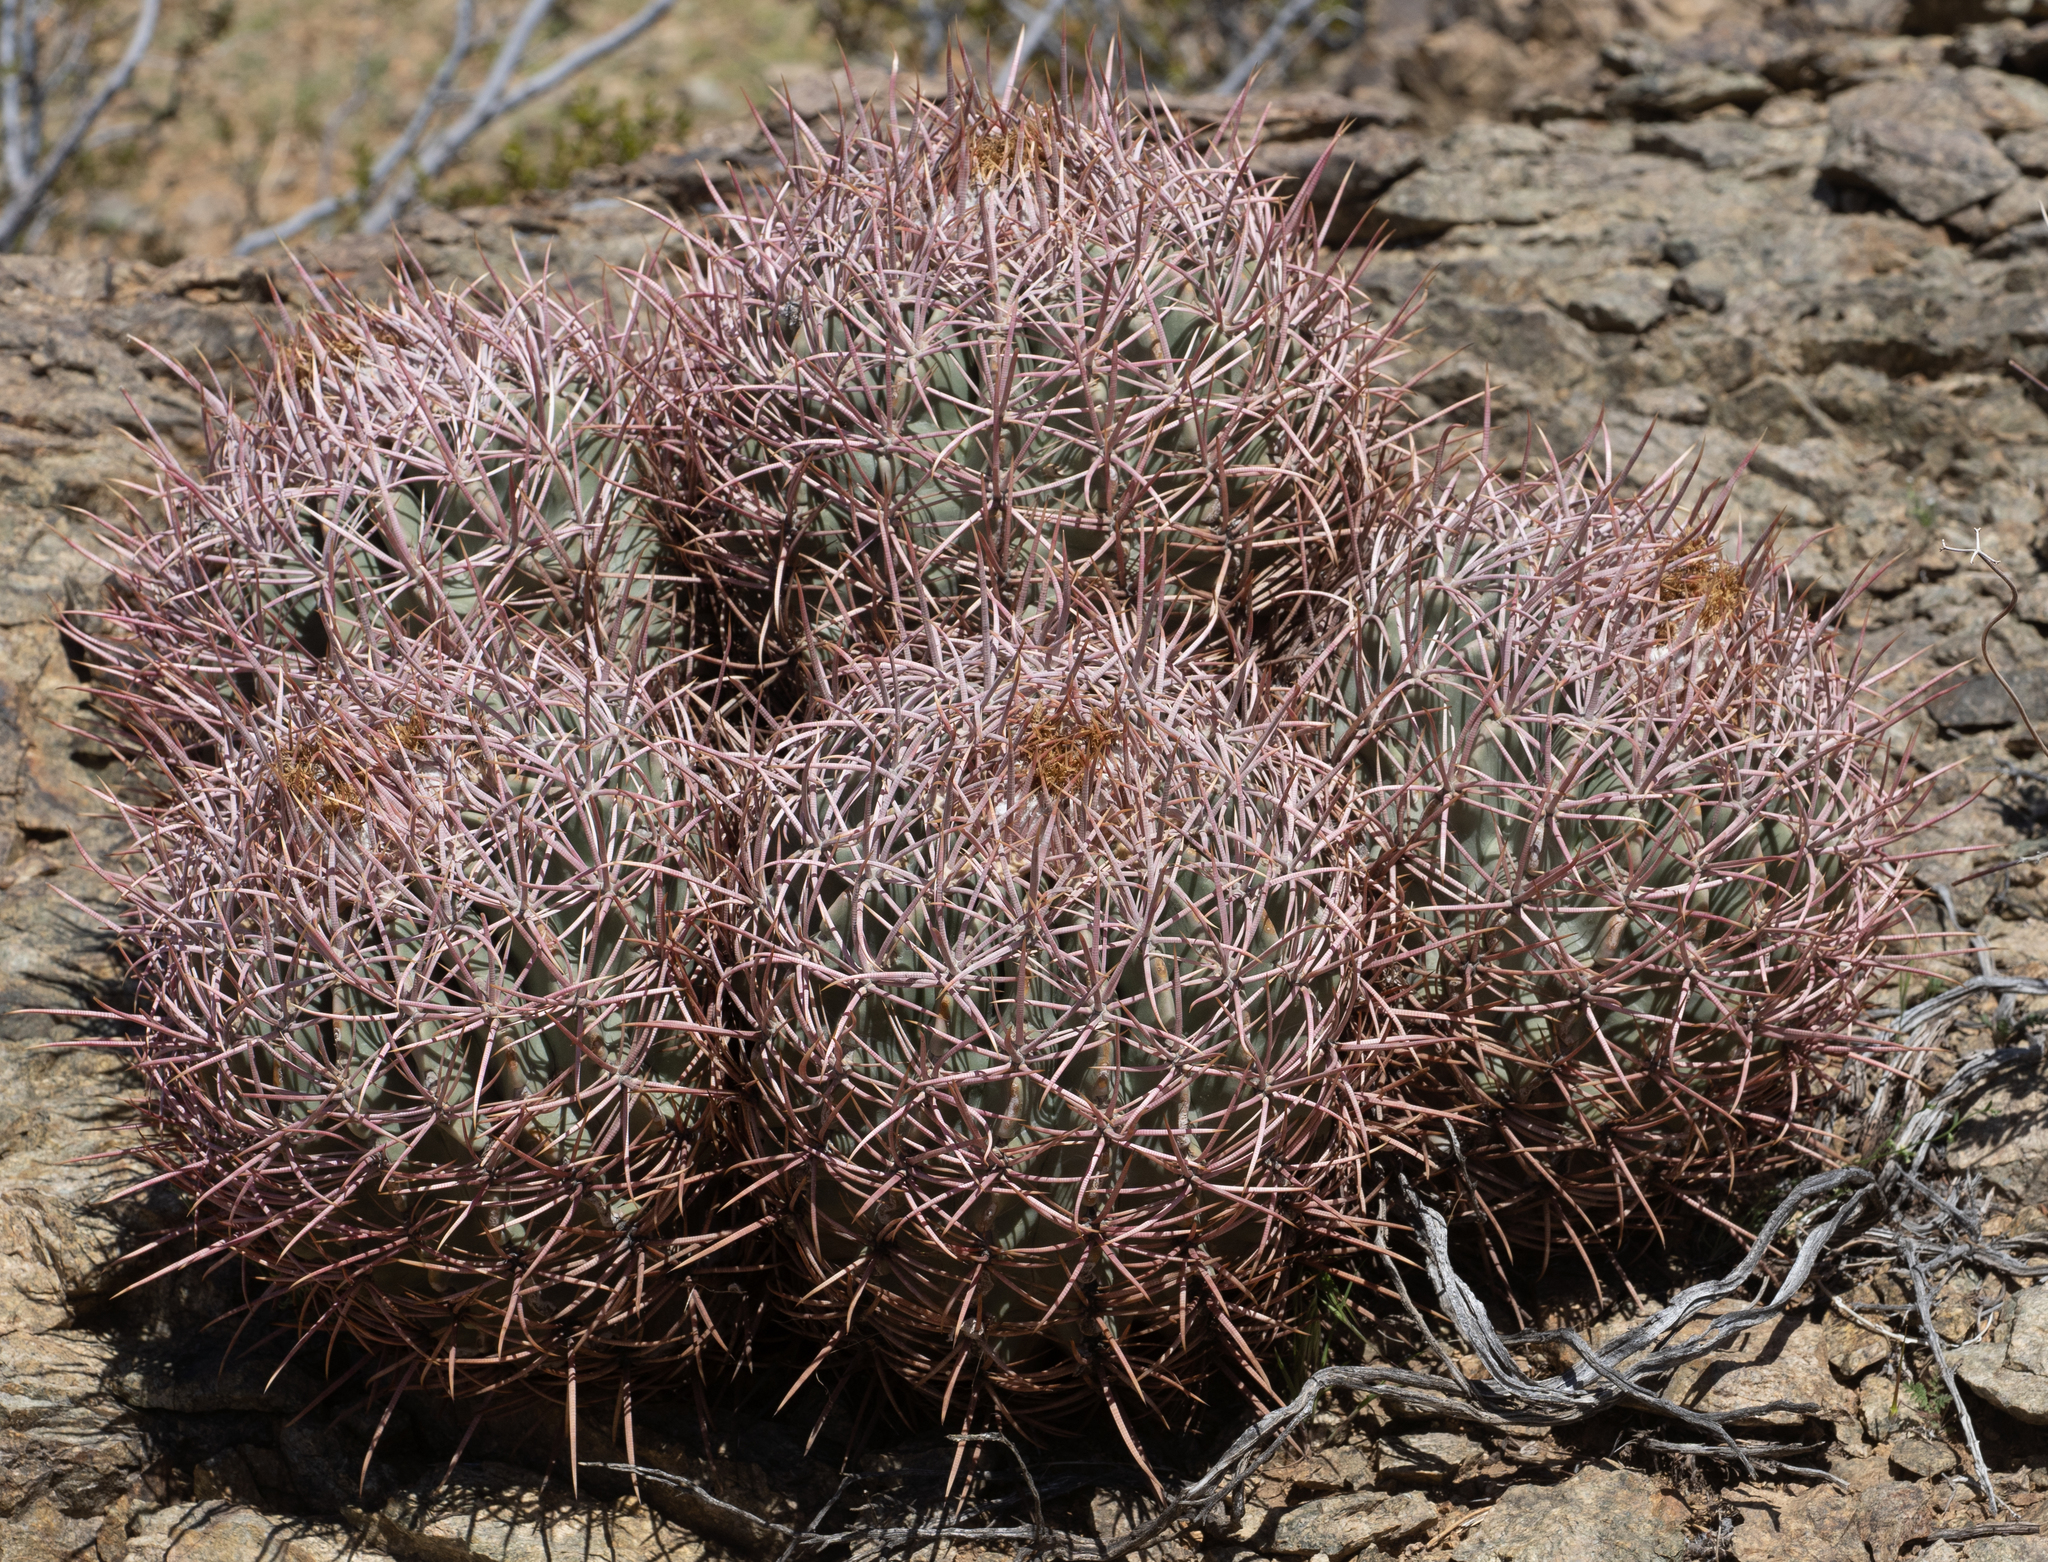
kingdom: Plantae
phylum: Tracheophyta
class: Magnoliopsida
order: Caryophyllales
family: Cactaceae
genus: Echinocactus
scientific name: Echinocactus polycephalus
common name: Cottontop cactus
